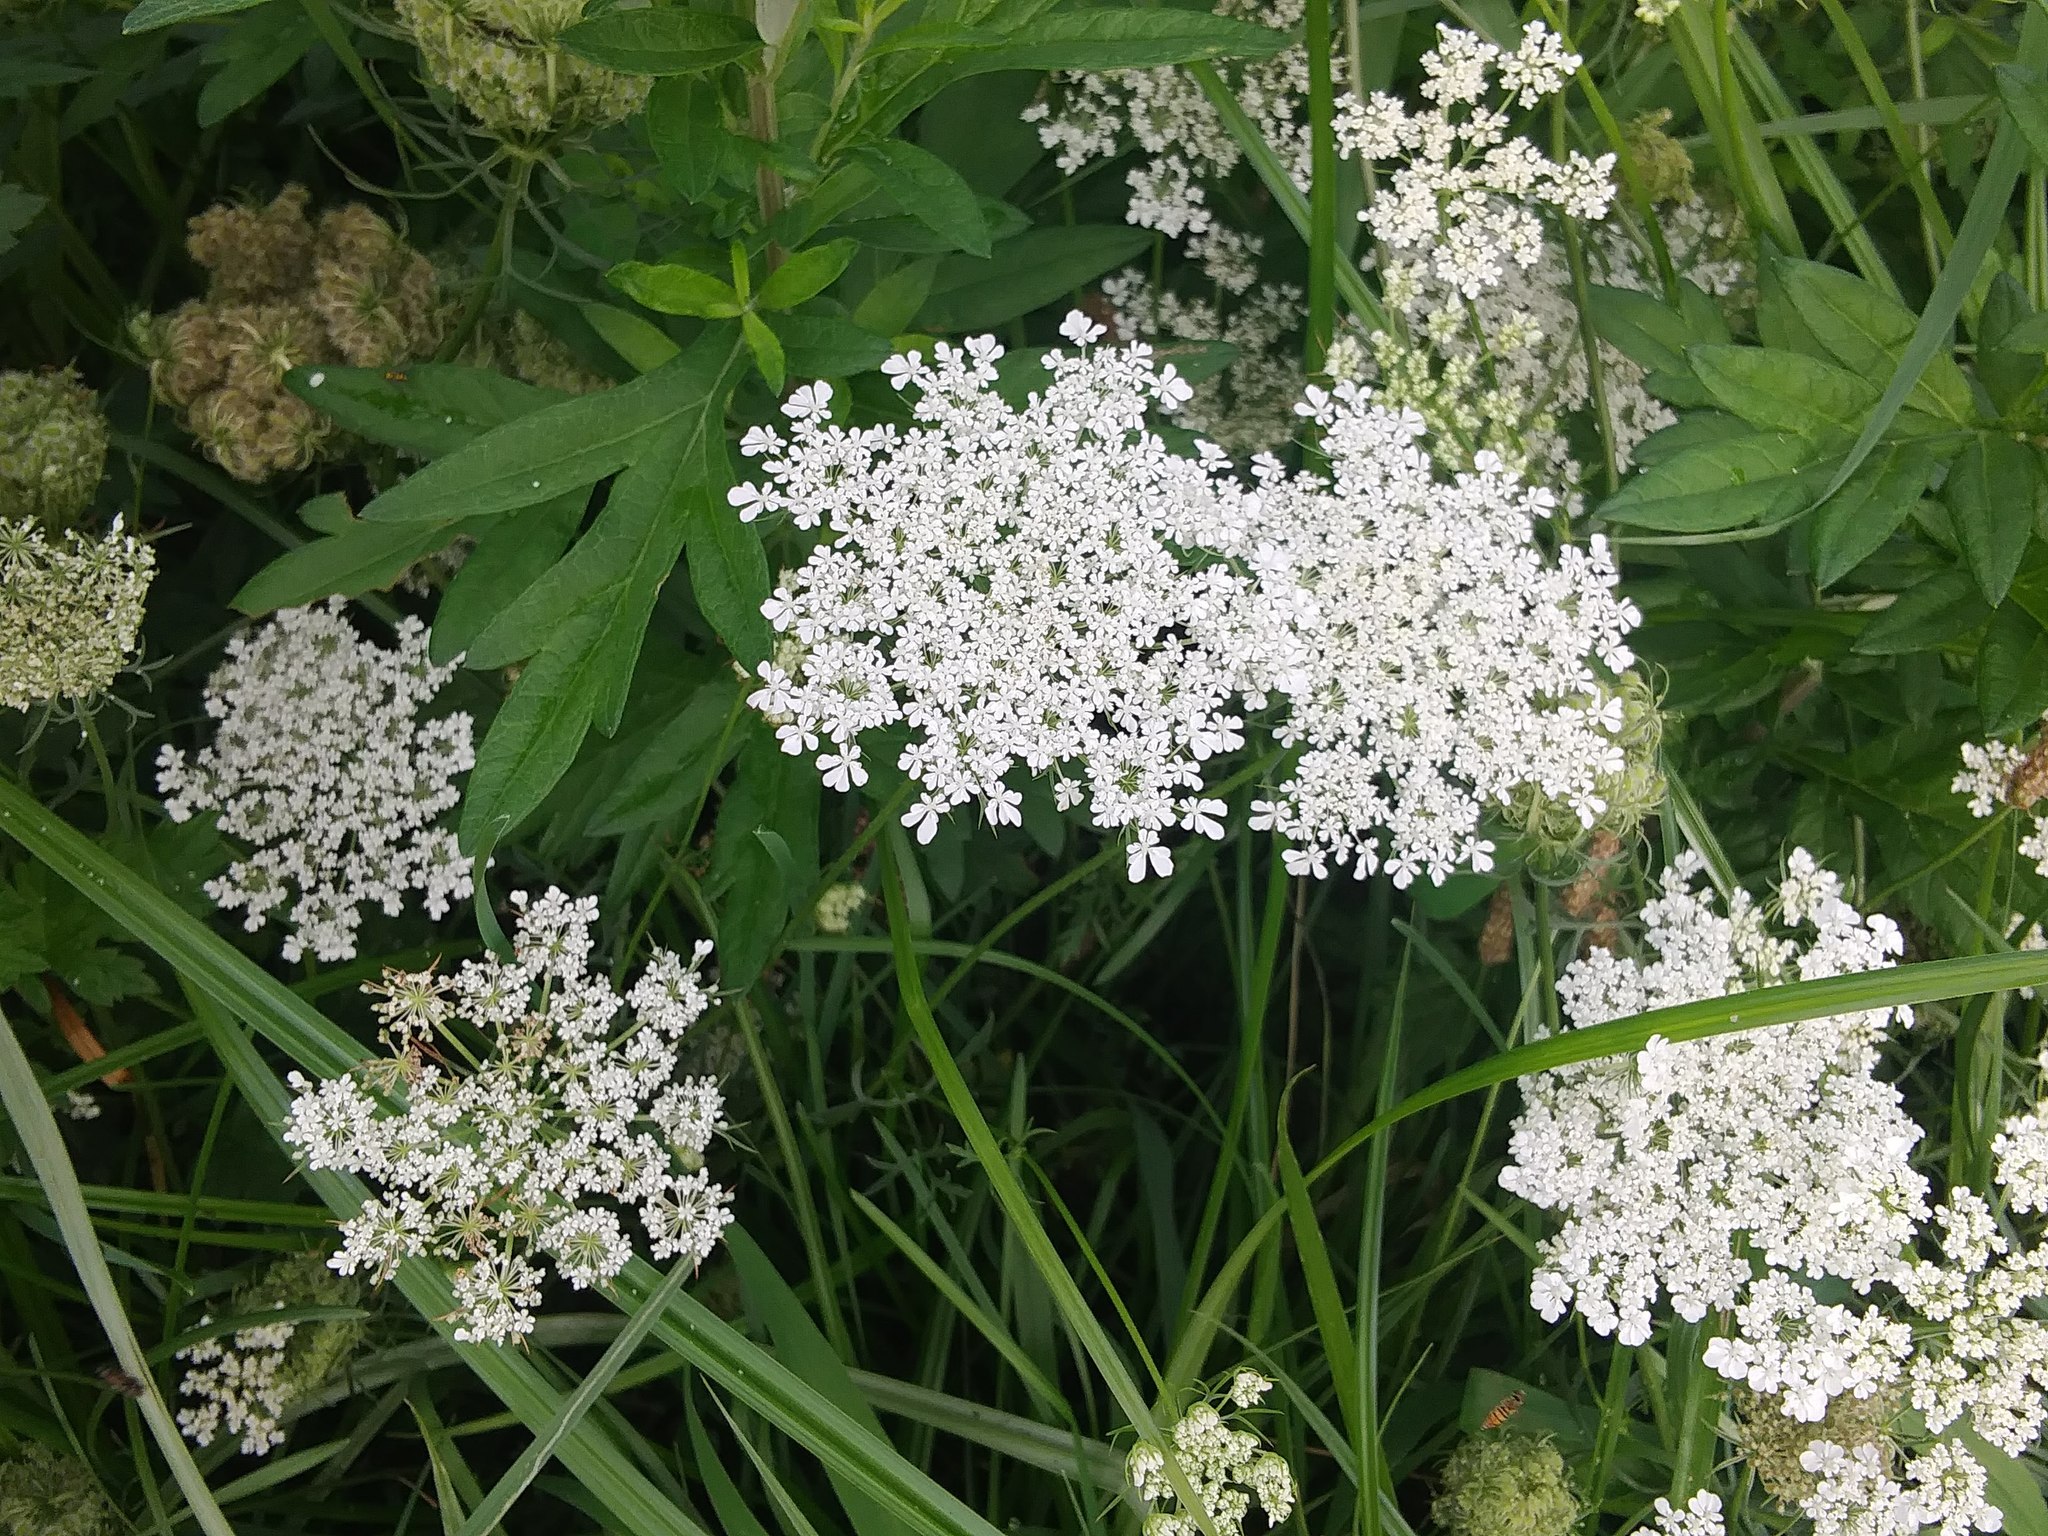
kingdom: Plantae
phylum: Tracheophyta
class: Magnoliopsida
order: Apiales
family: Apiaceae
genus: Daucus
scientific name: Daucus carota
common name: Wild carrot
